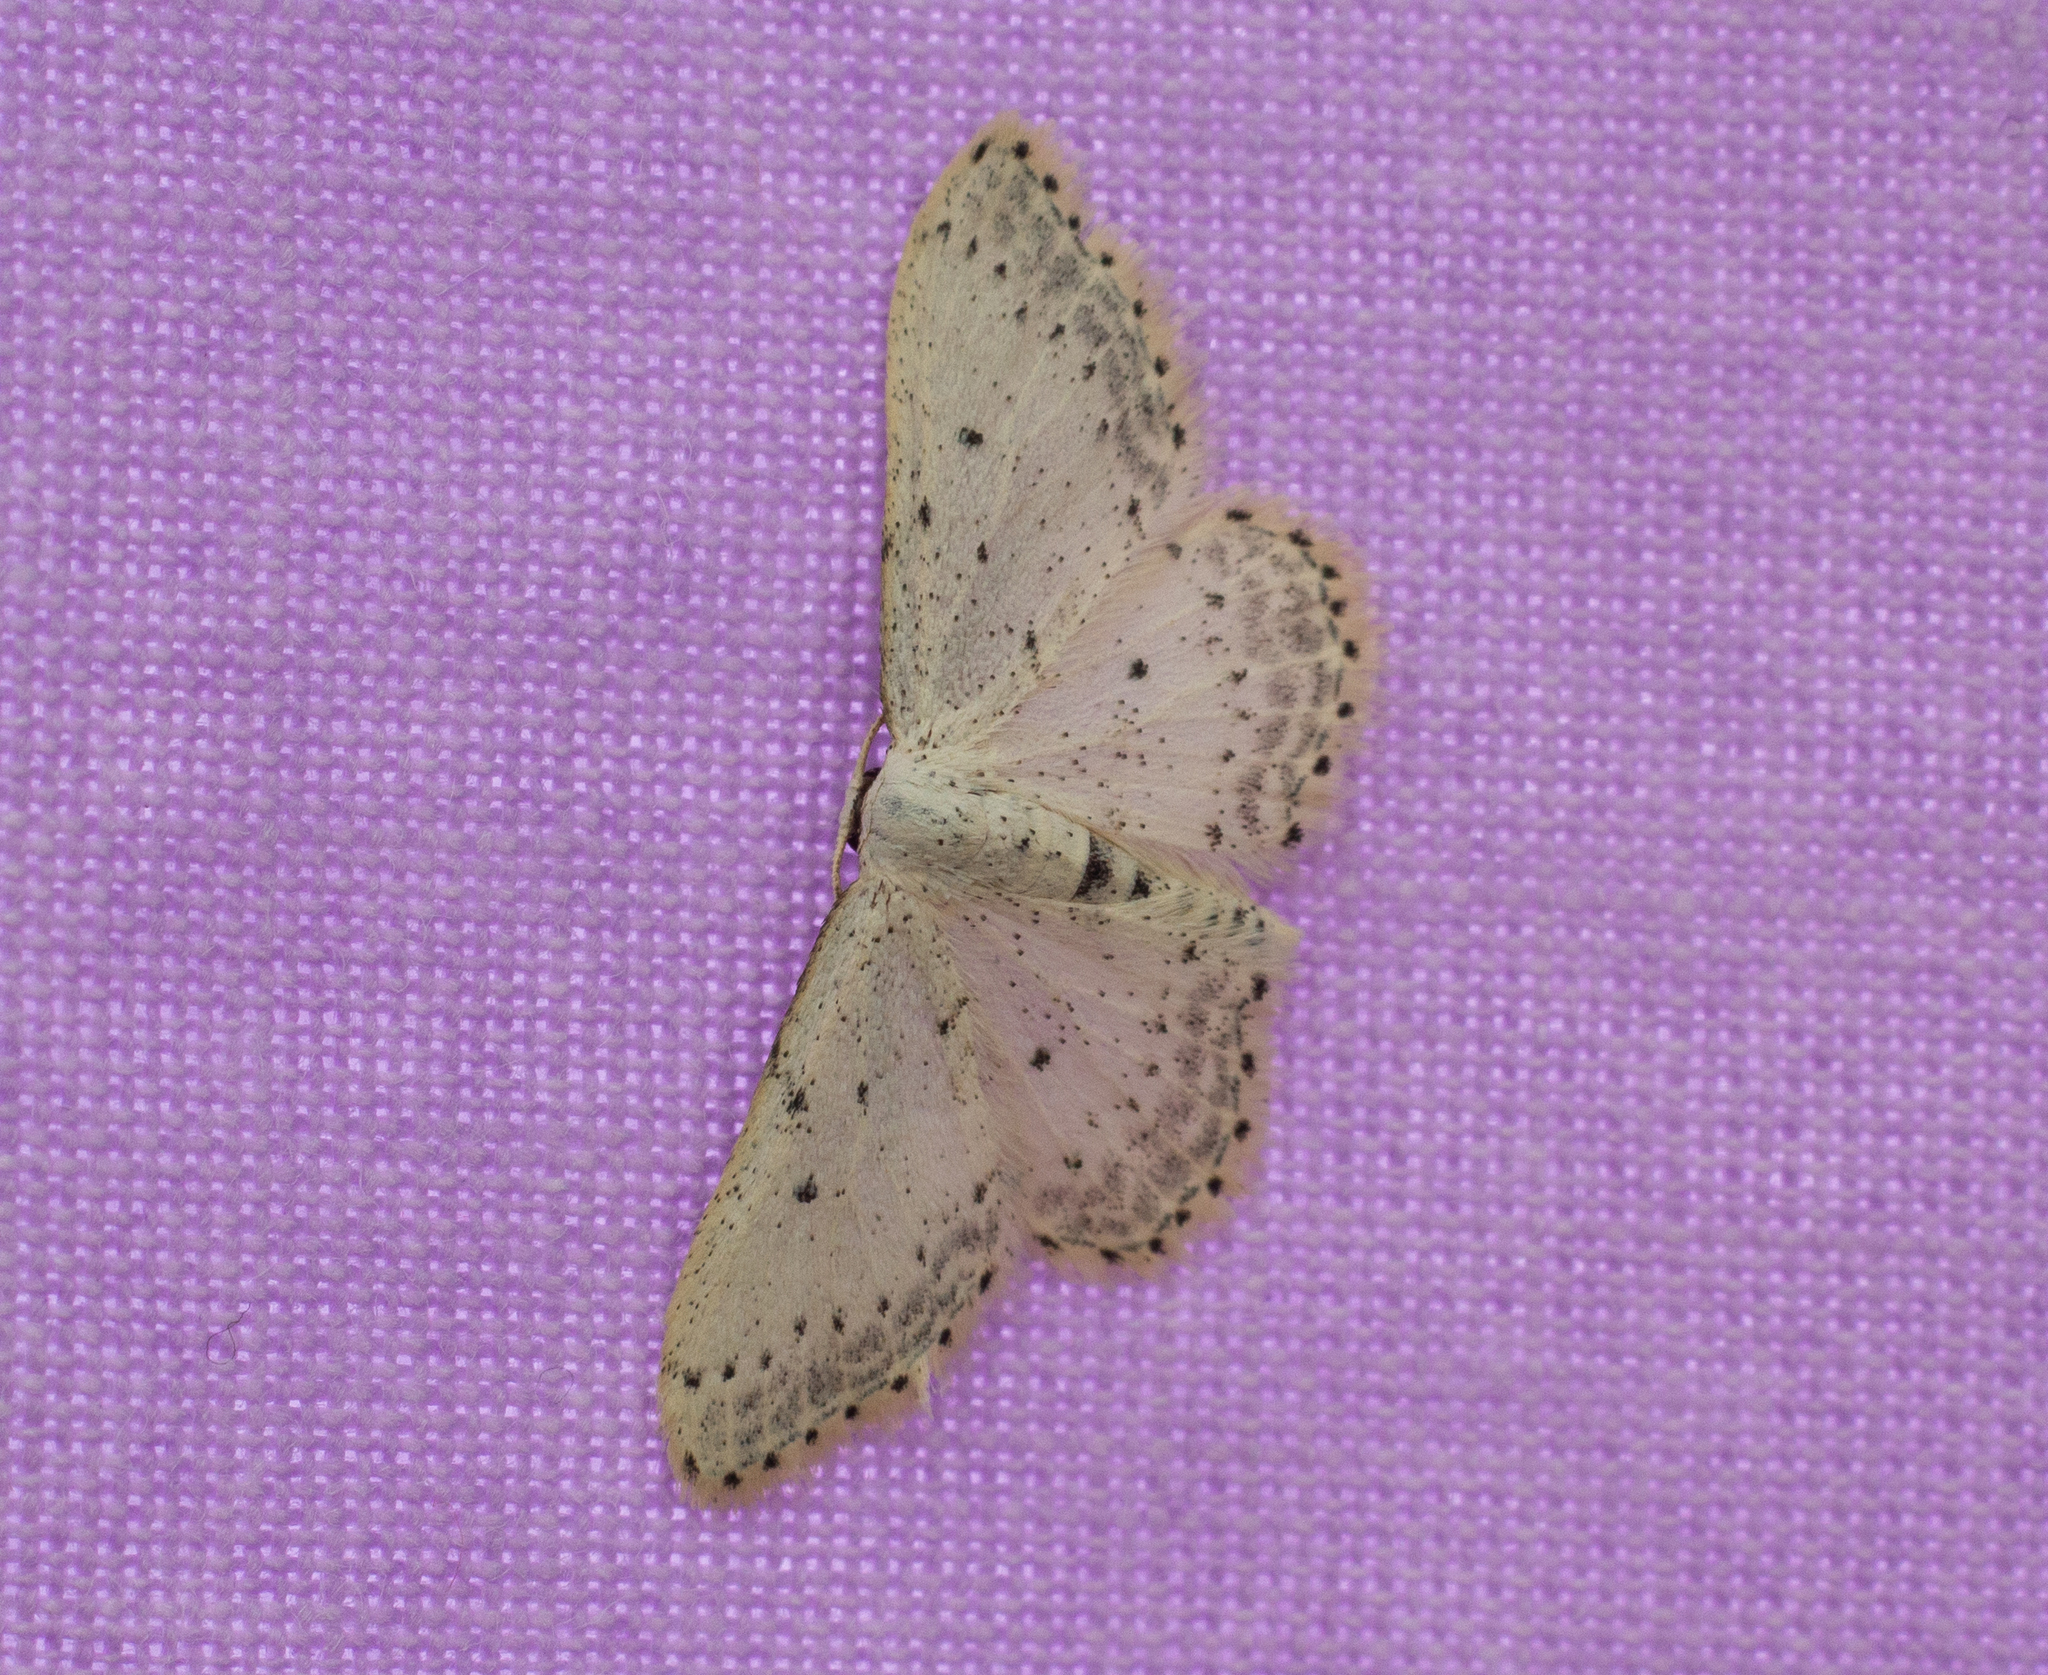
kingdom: Animalia
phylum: Arthropoda
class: Insecta
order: Lepidoptera
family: Geometridae
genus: Idaea
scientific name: Idaea seriata
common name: Small dusty wave
